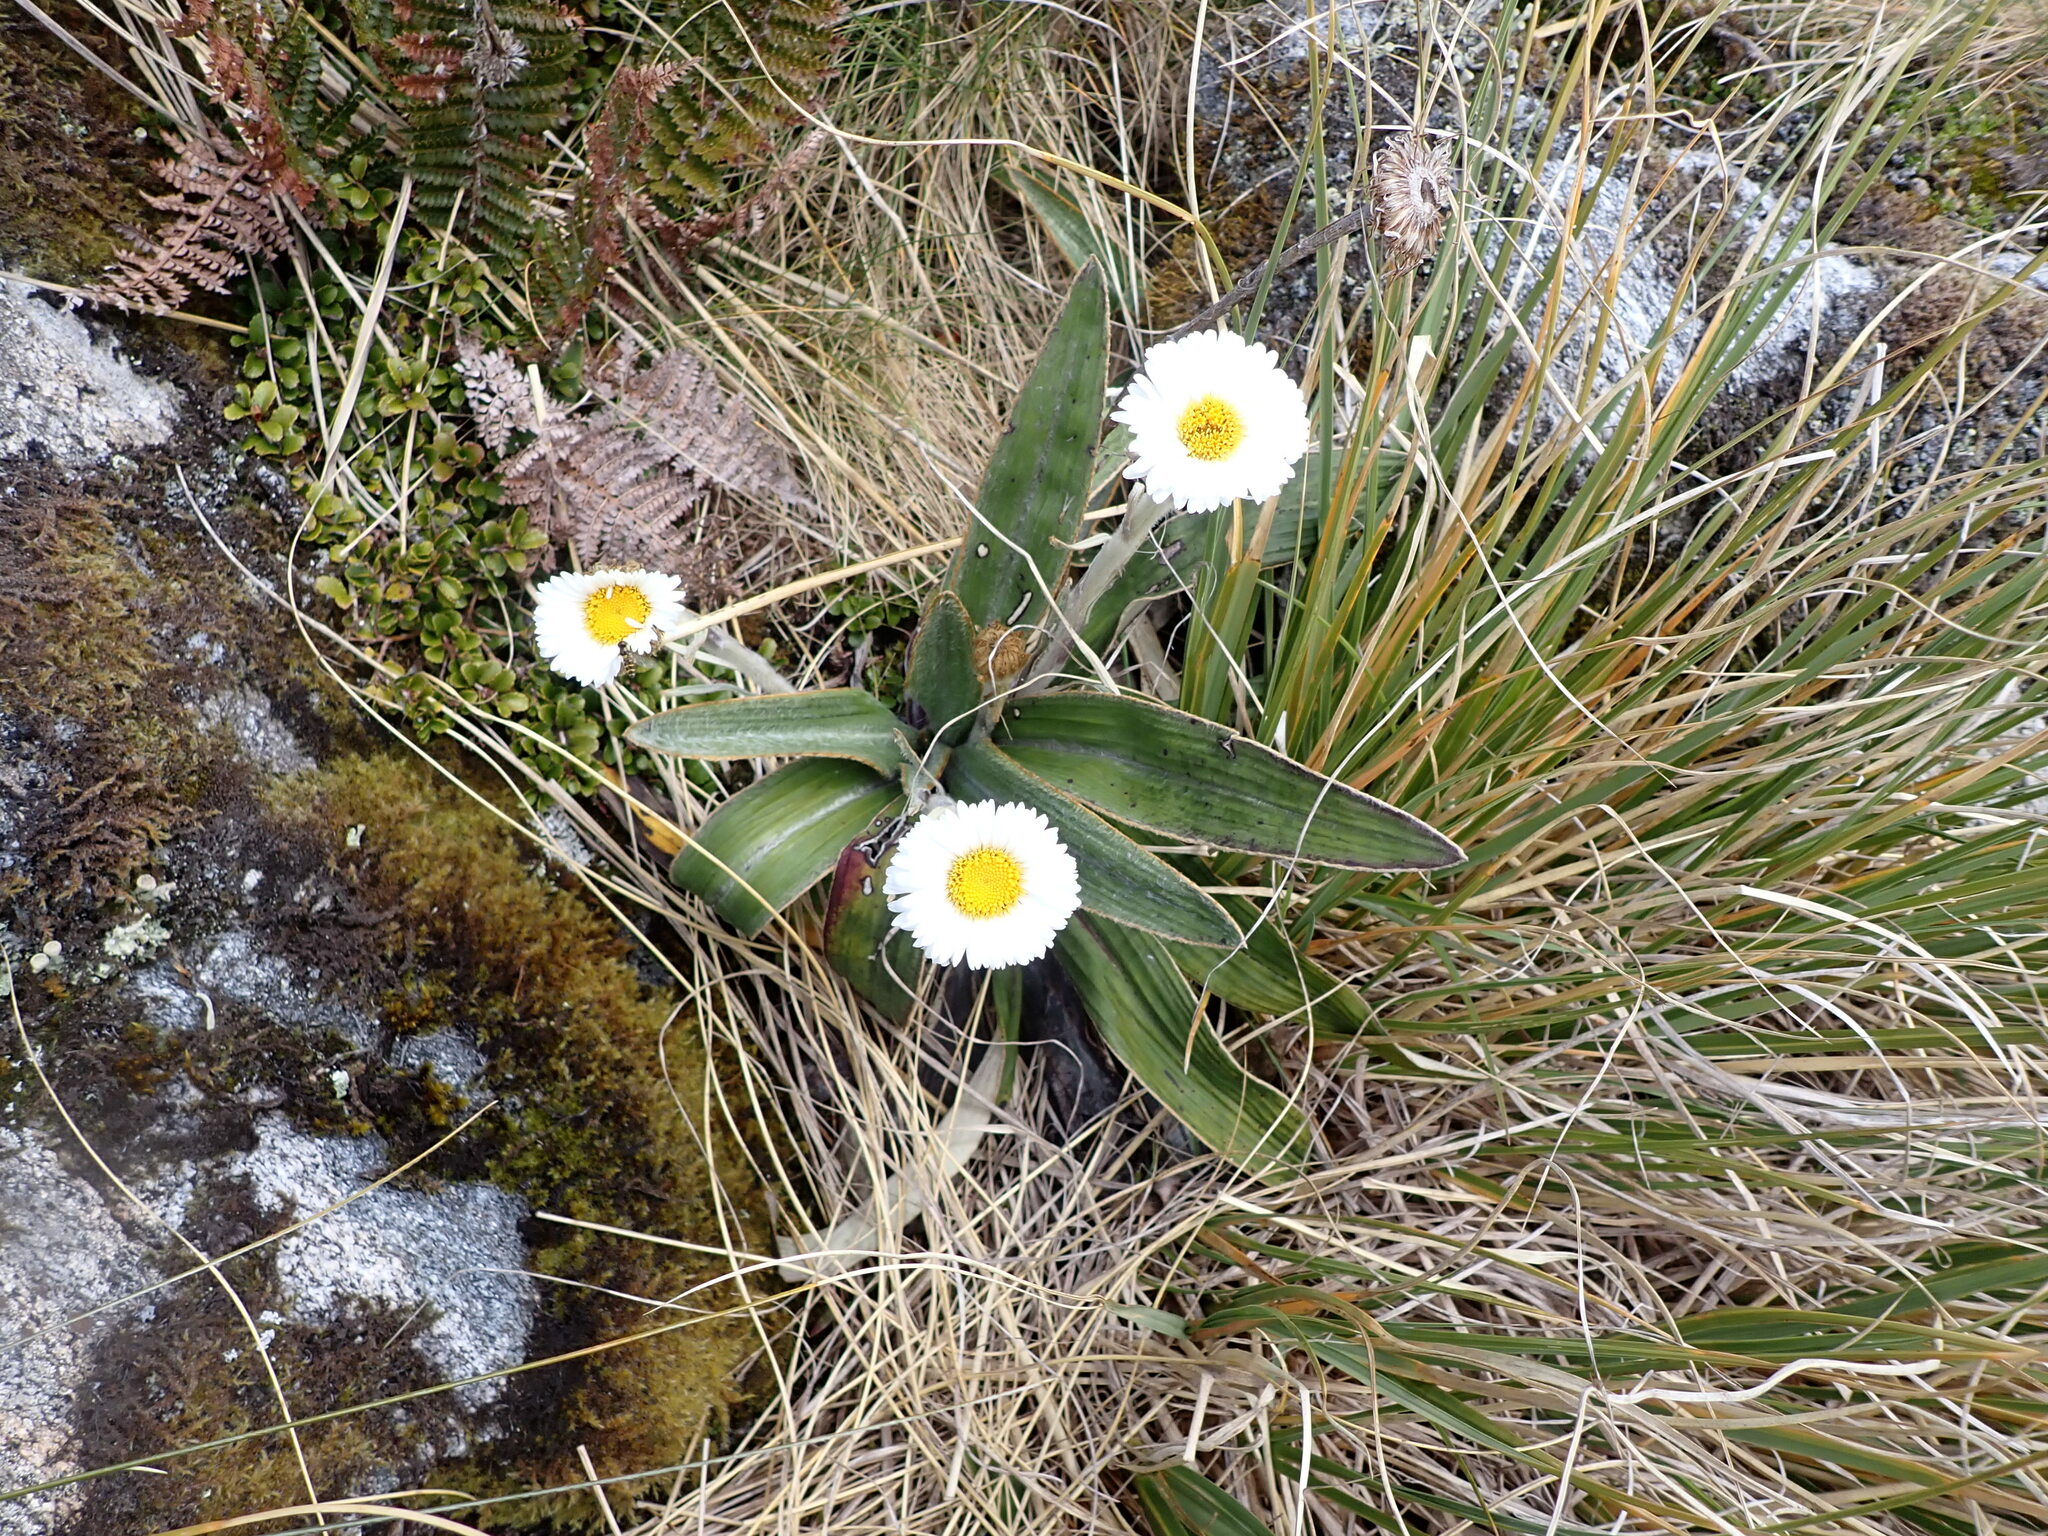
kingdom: Plantae
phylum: Tracheophyta
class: Magnoliopsida
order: Asterales
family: Asteraceae
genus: Celmisia
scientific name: Celmisia verbascifolia
